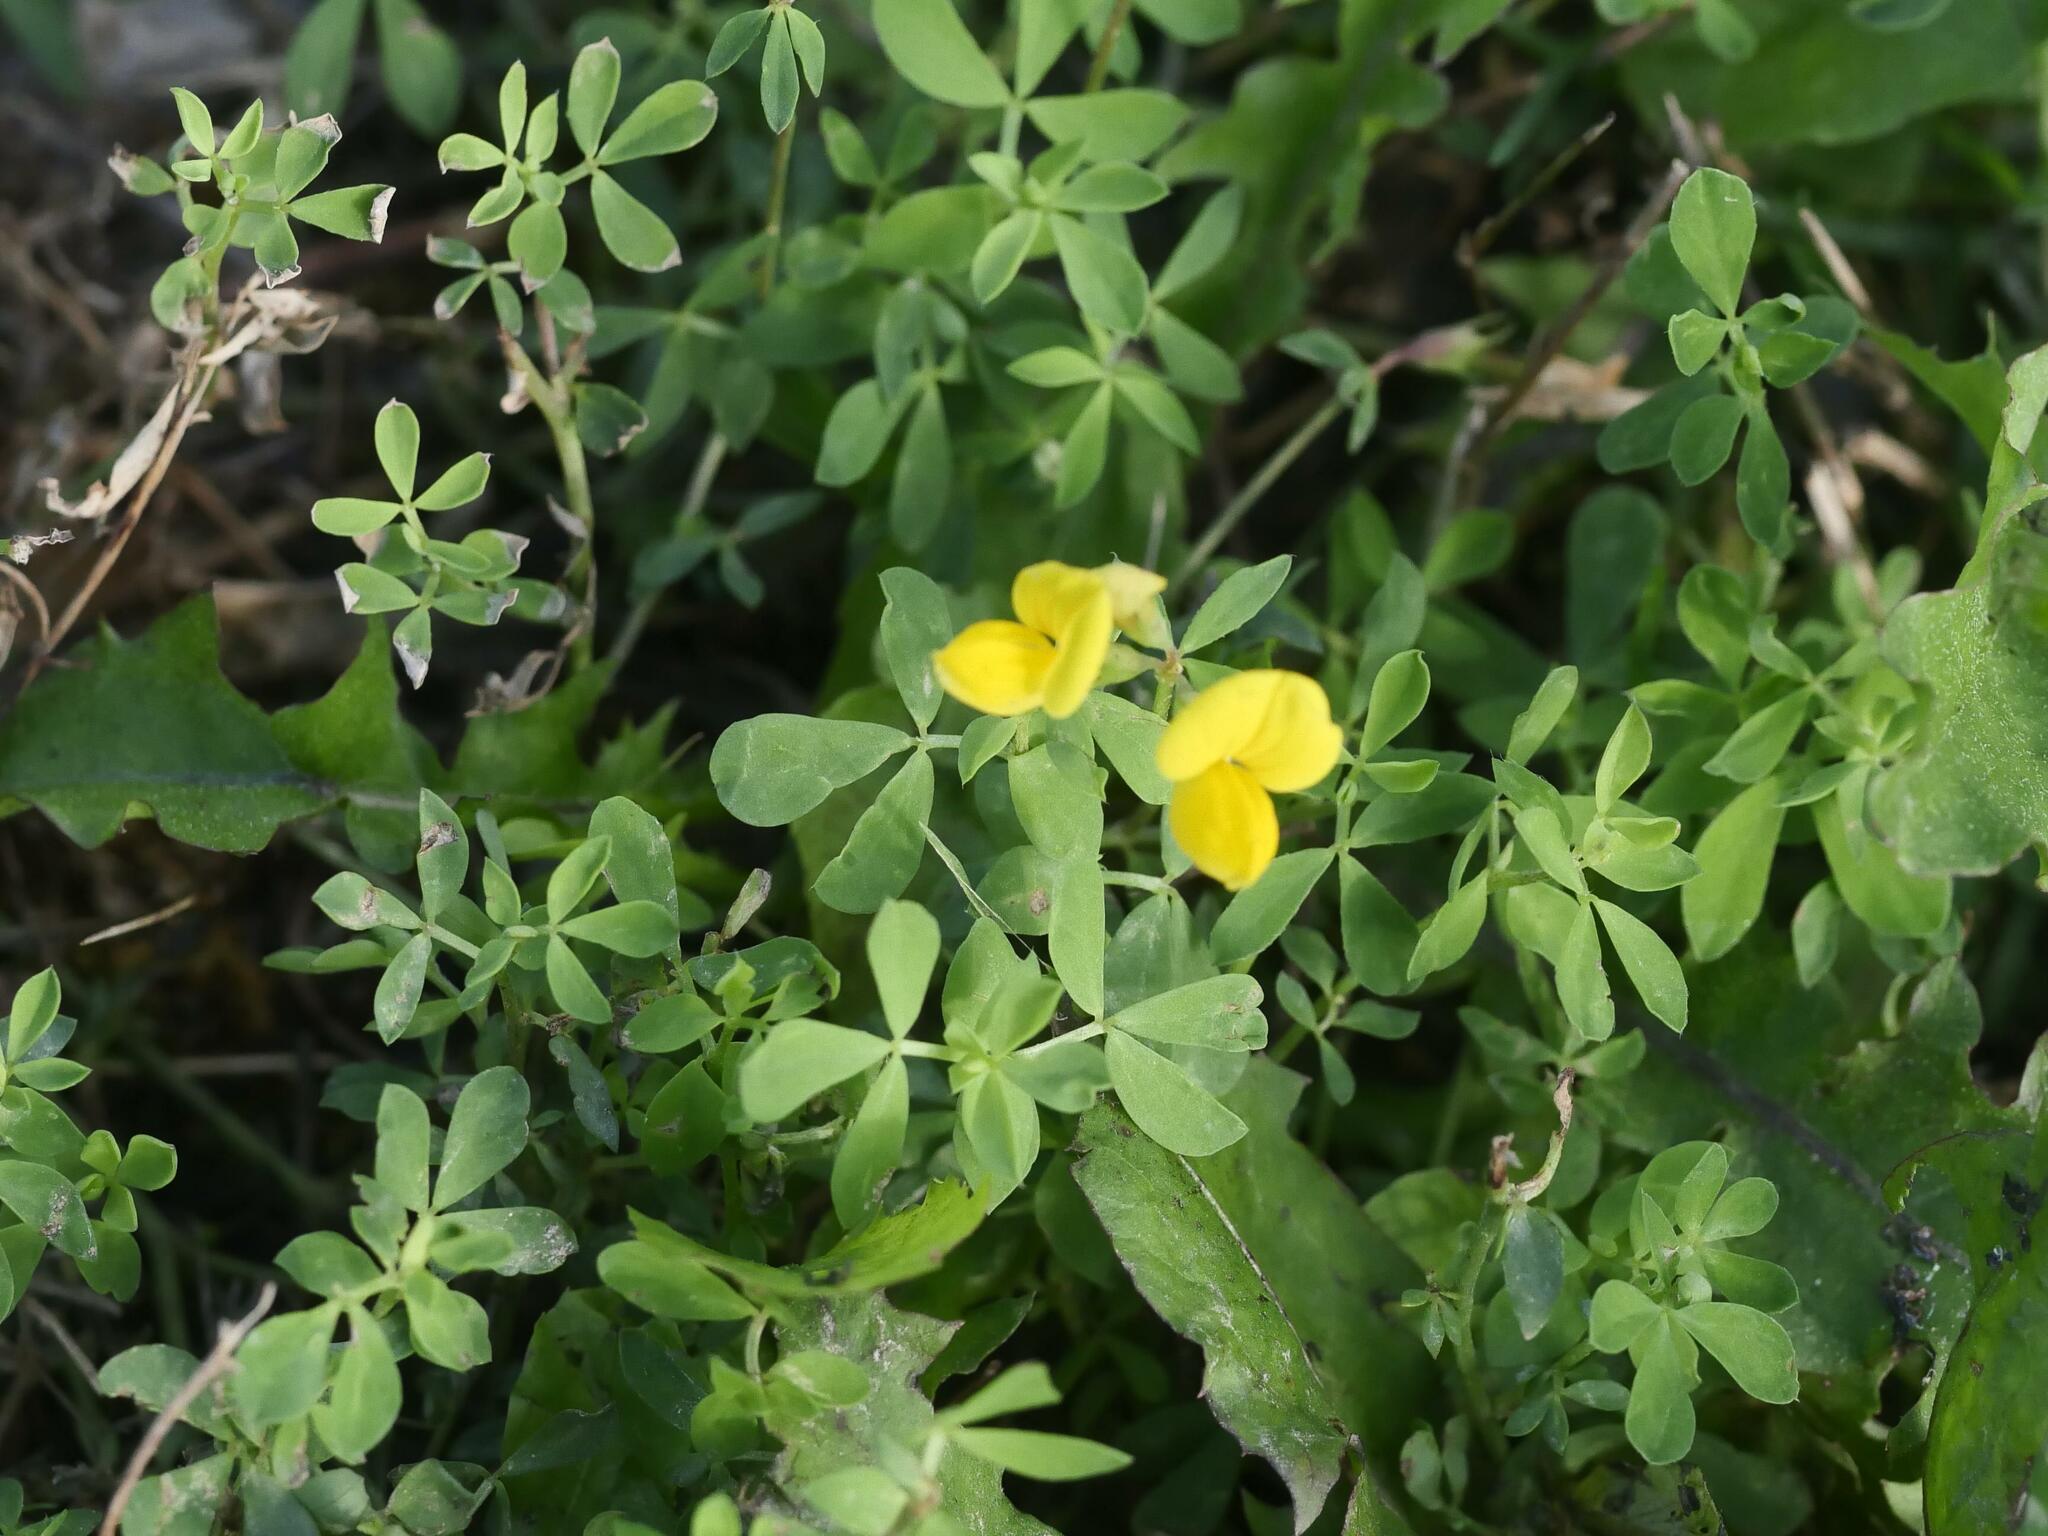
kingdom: Plantae
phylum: Tracheophyta
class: Magnoliopsida
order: Fabales
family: Fabaceae
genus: Lotus
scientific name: Lotus corniculatus
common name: Common bird's-foot-trefoil
